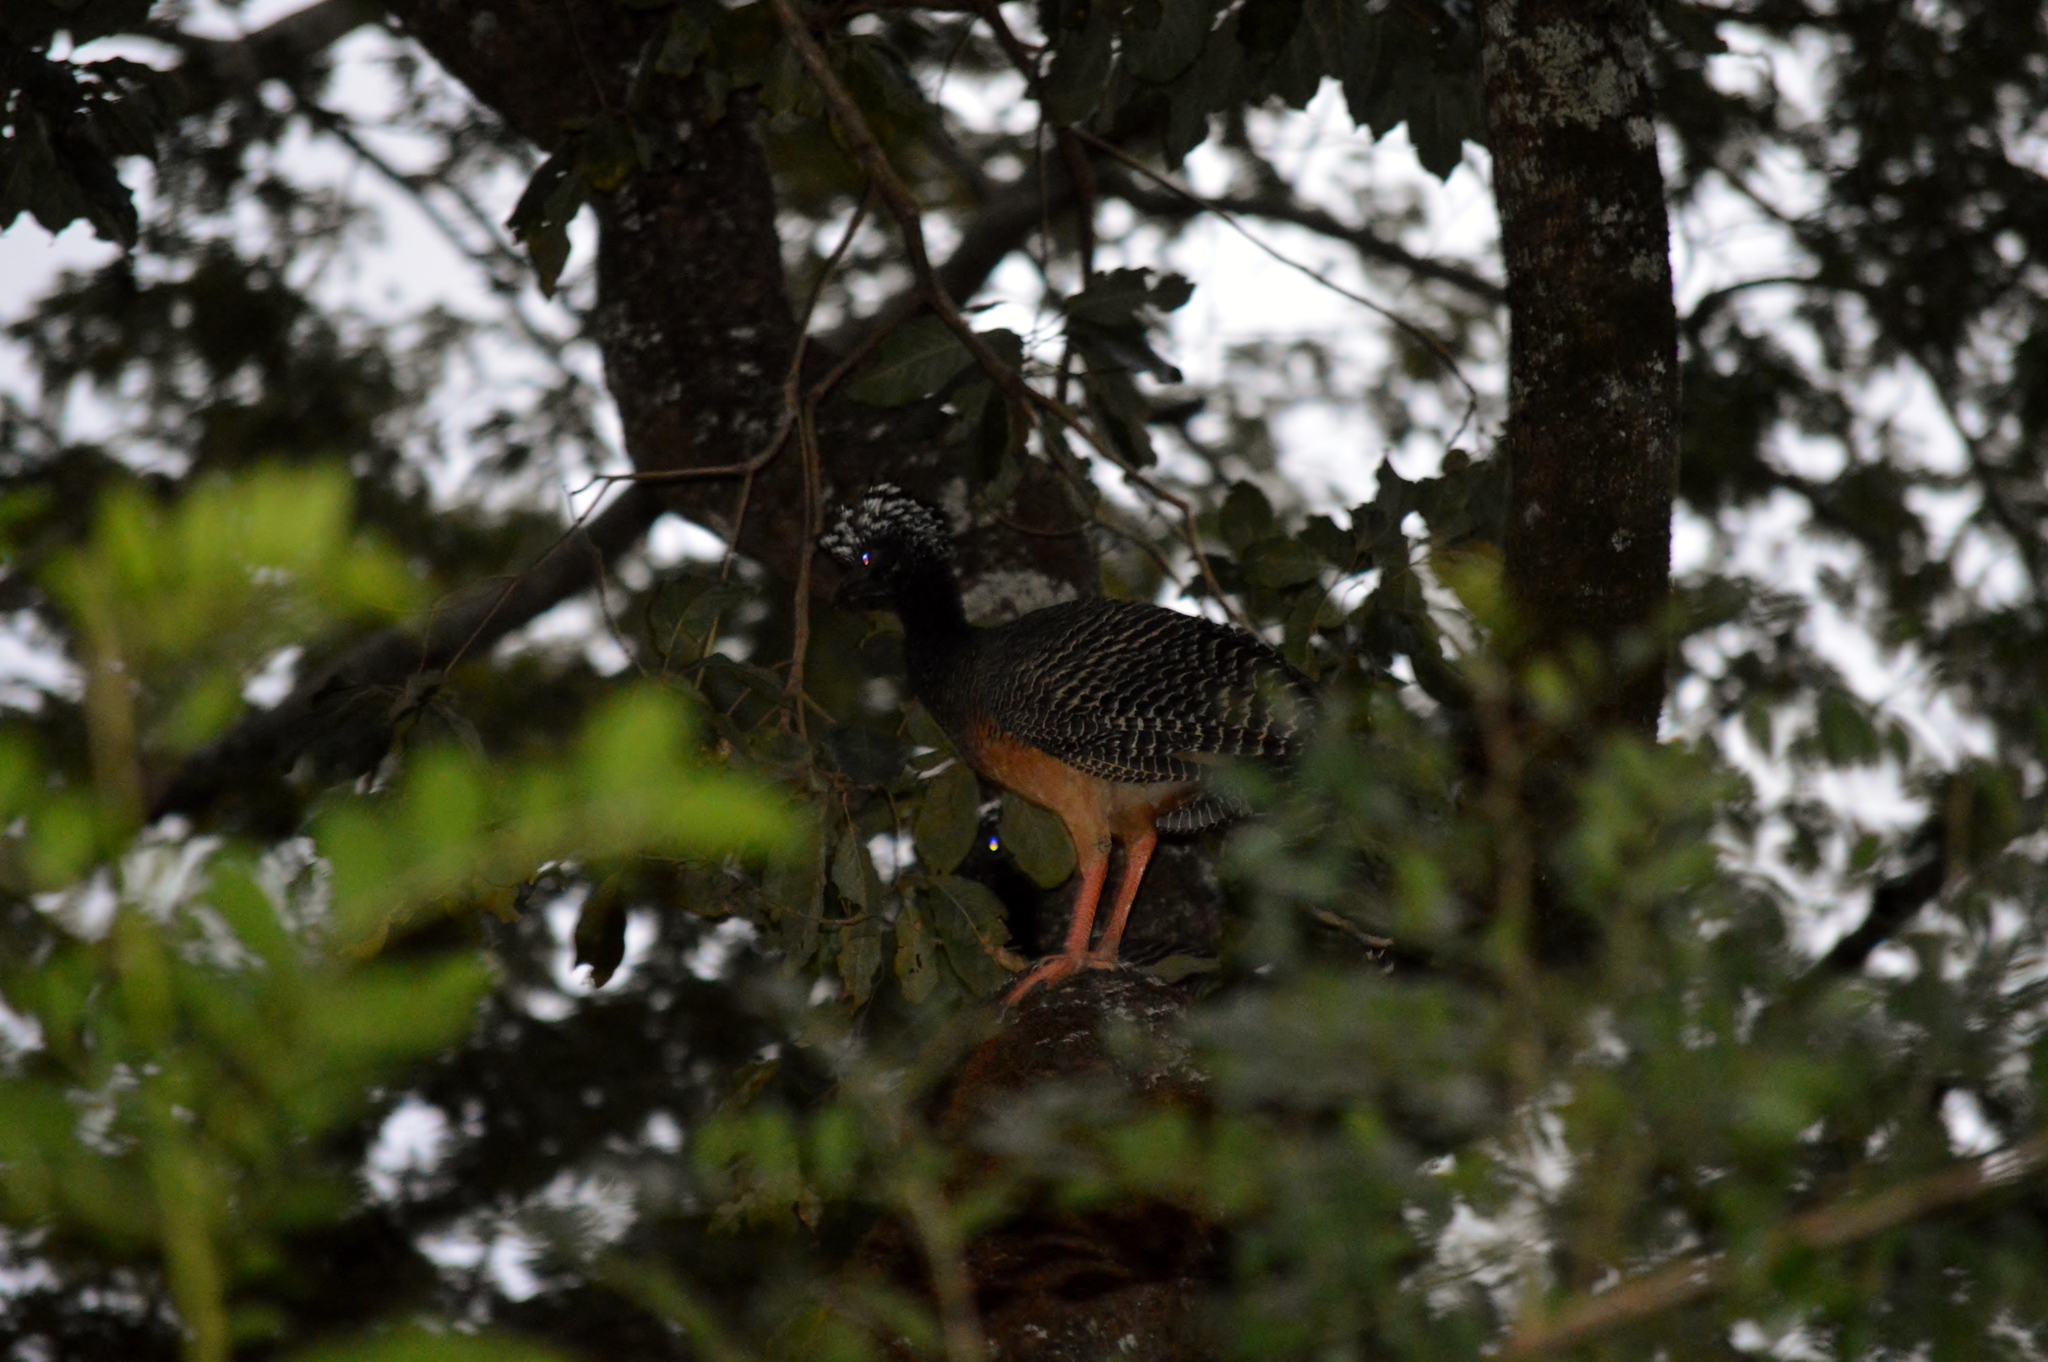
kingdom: Animalia
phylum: Chordata
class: Aves
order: Galliformes
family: Cracidae
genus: Crax
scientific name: Crax fasciolata
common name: Bare-faced curassow
